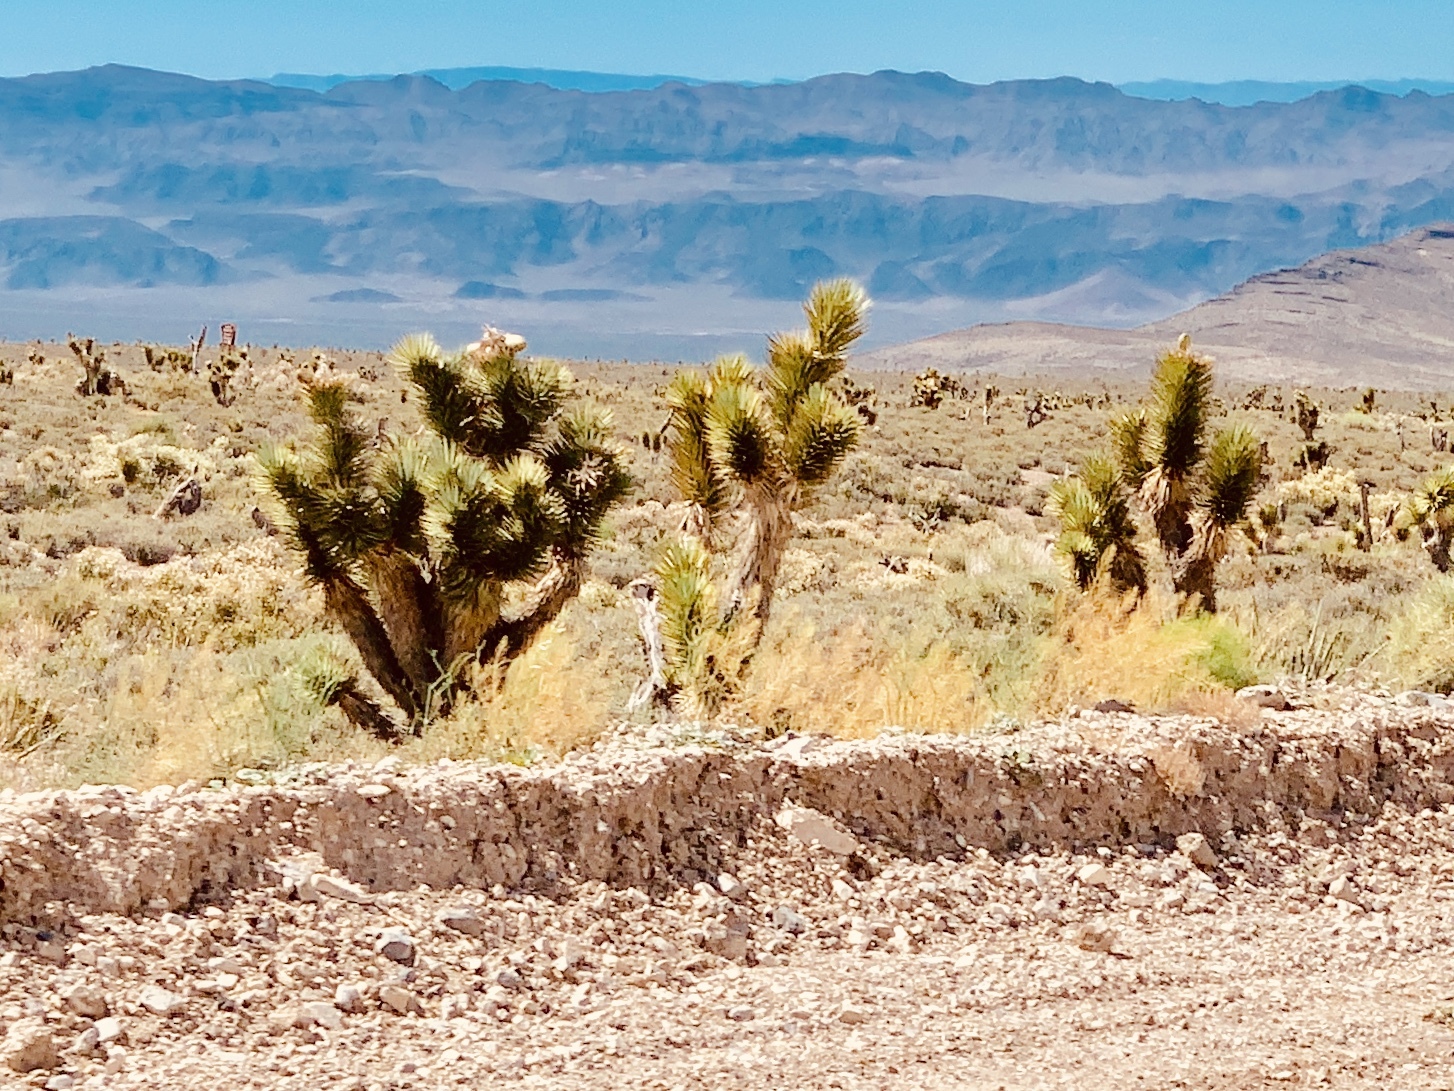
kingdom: Plantae
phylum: Tracheophyta
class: Liliopsida
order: Asparagales
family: Asparagaceae
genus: Yucca
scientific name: Yucca brevifolia
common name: Joshua tree
